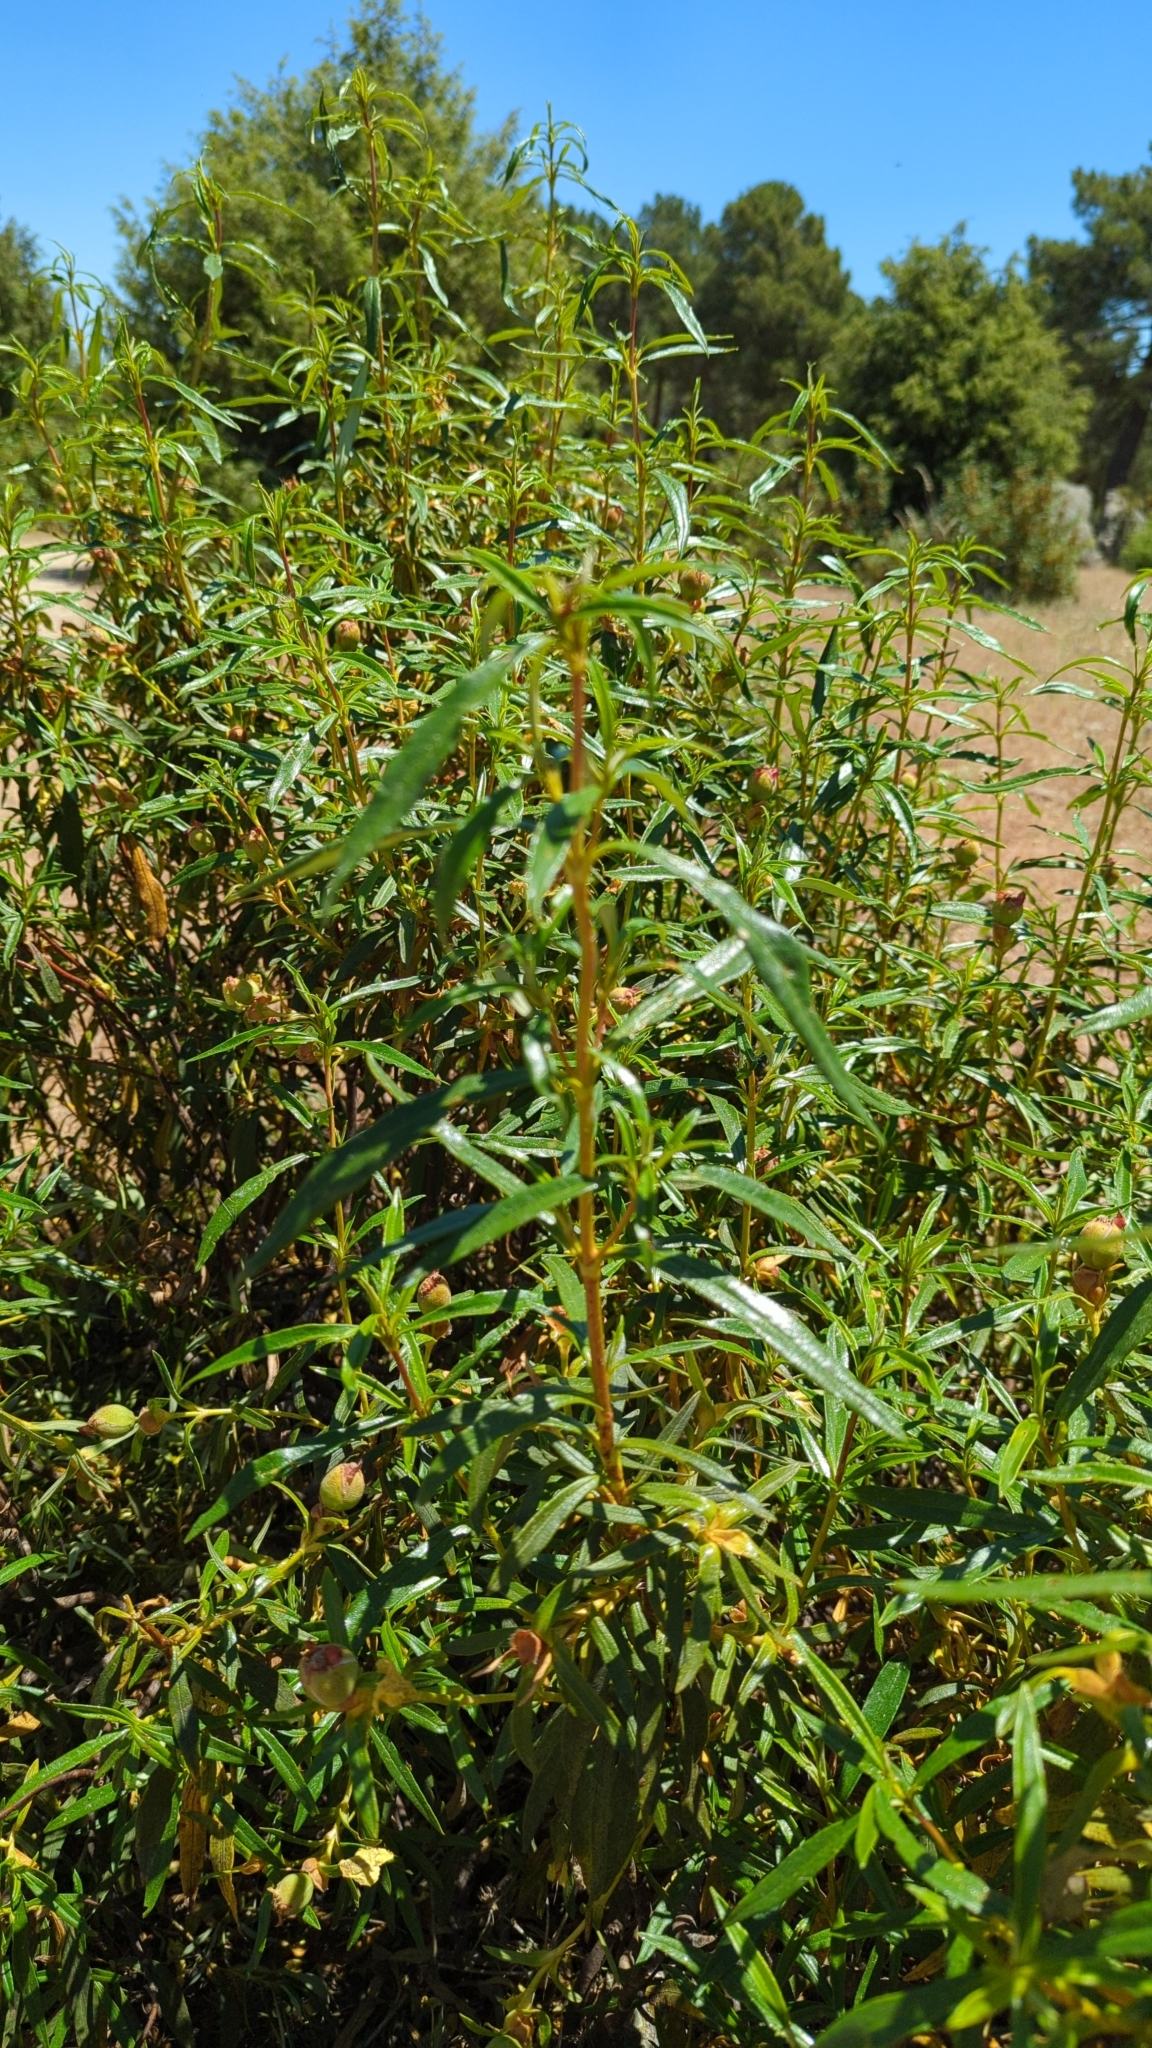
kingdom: Plantae
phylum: Tracheophyta
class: Magnoliopsida
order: Malvales
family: Cistaceae
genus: Cistus
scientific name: Cistus ladanifer
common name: Common gum cistus
